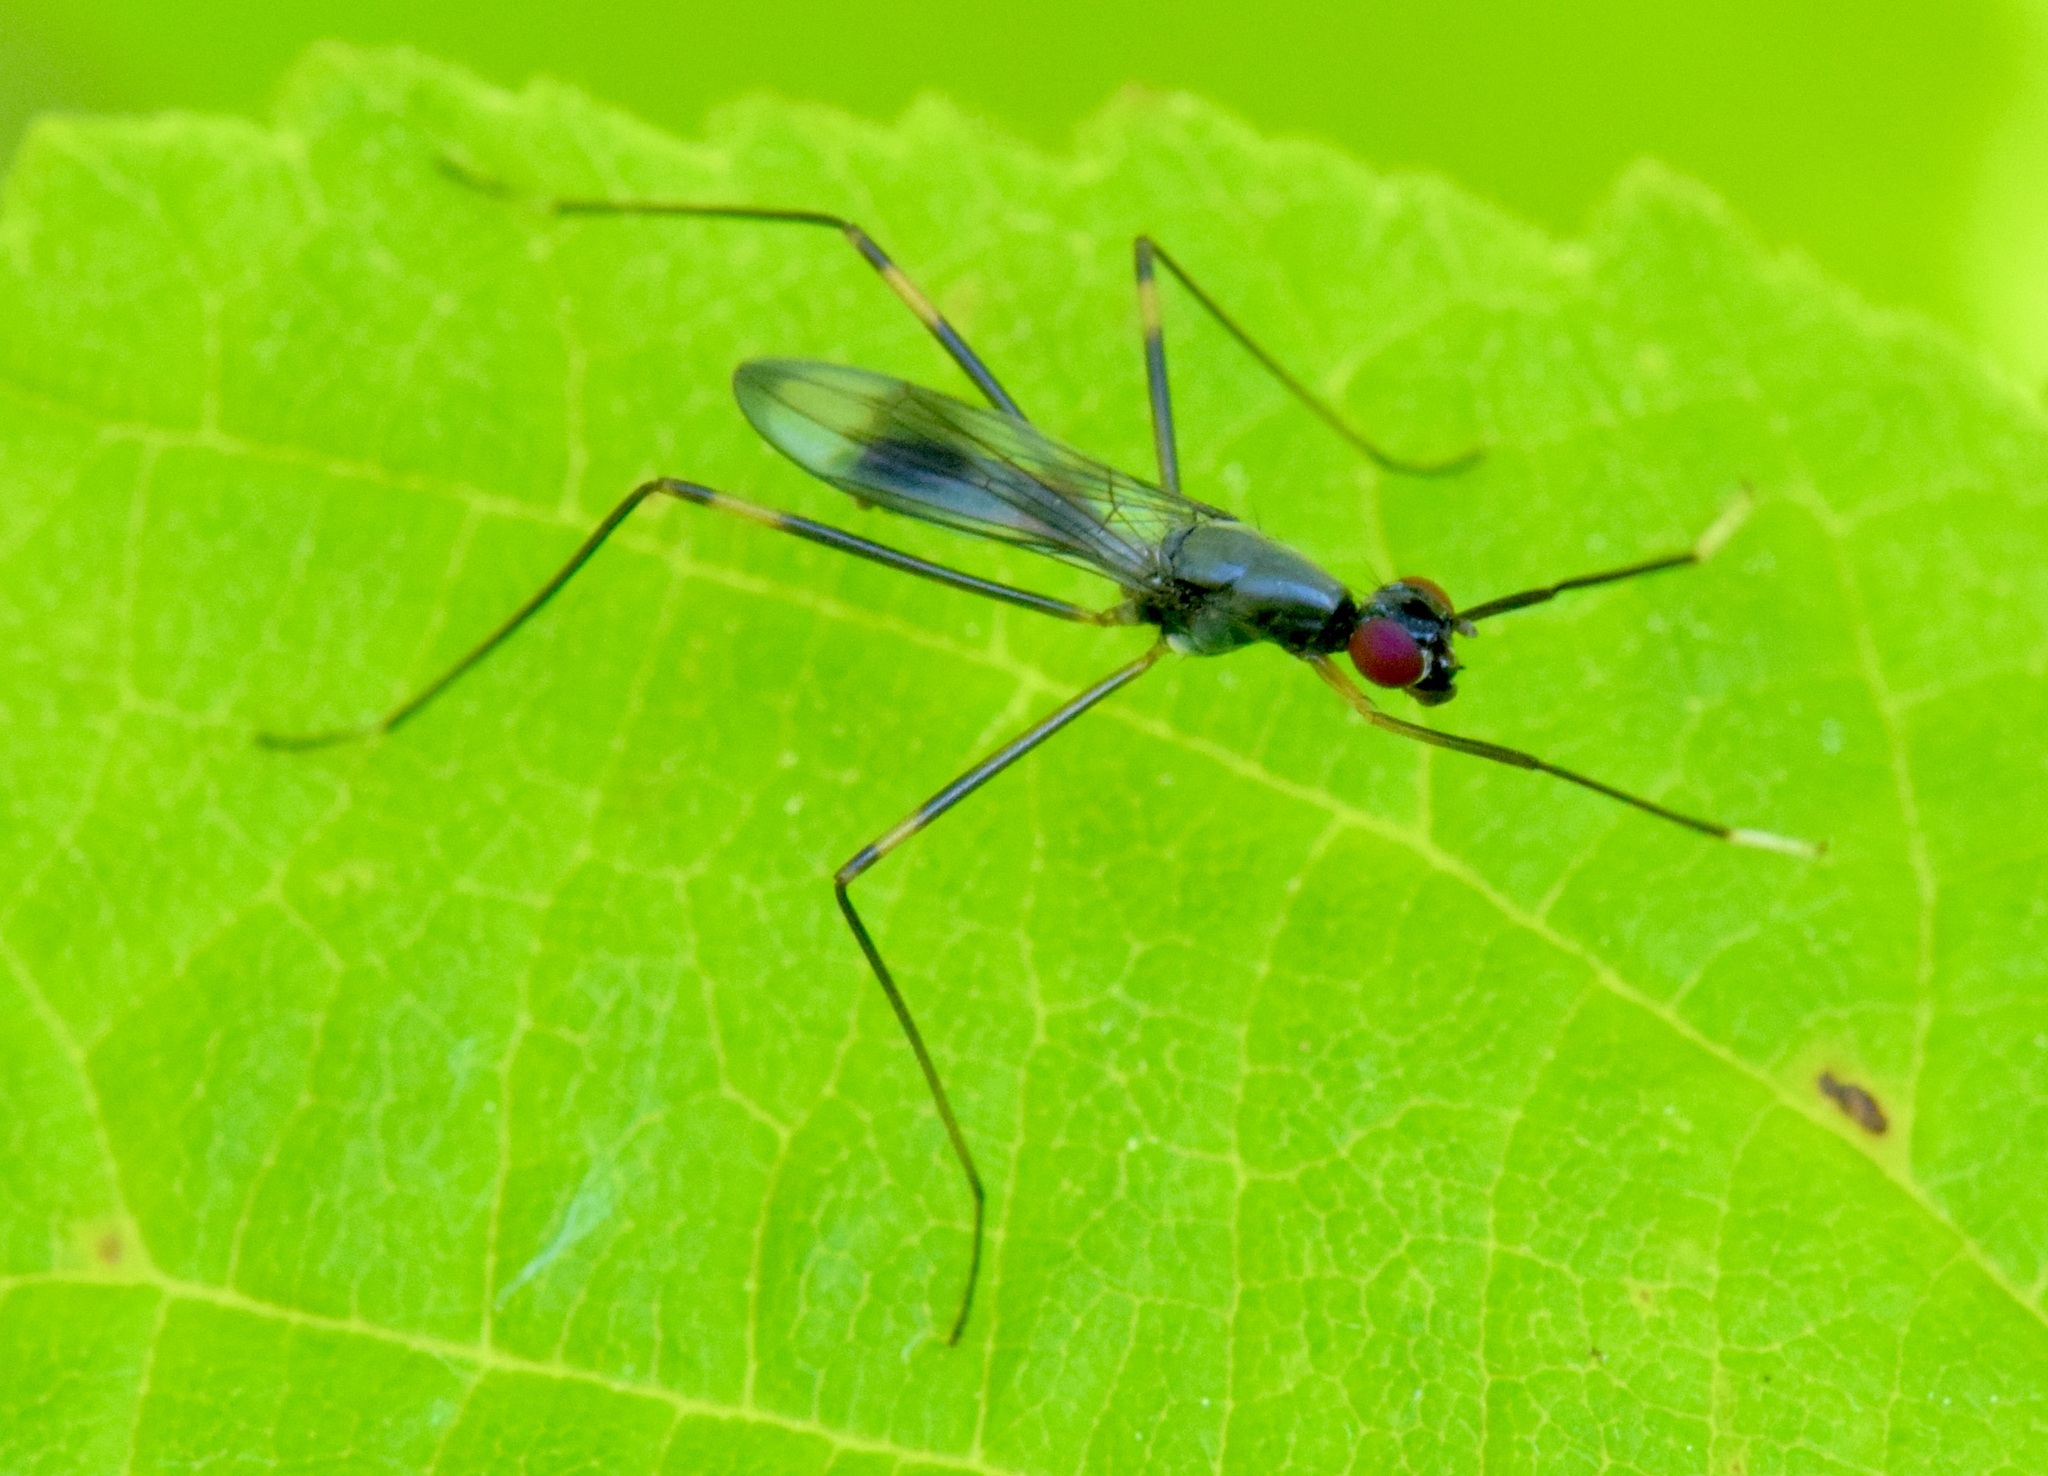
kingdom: Animalia
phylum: Arthropoda
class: Insecta
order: Diptera
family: Micropezidae
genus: Rainieria
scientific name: Rainieria antennaepes
